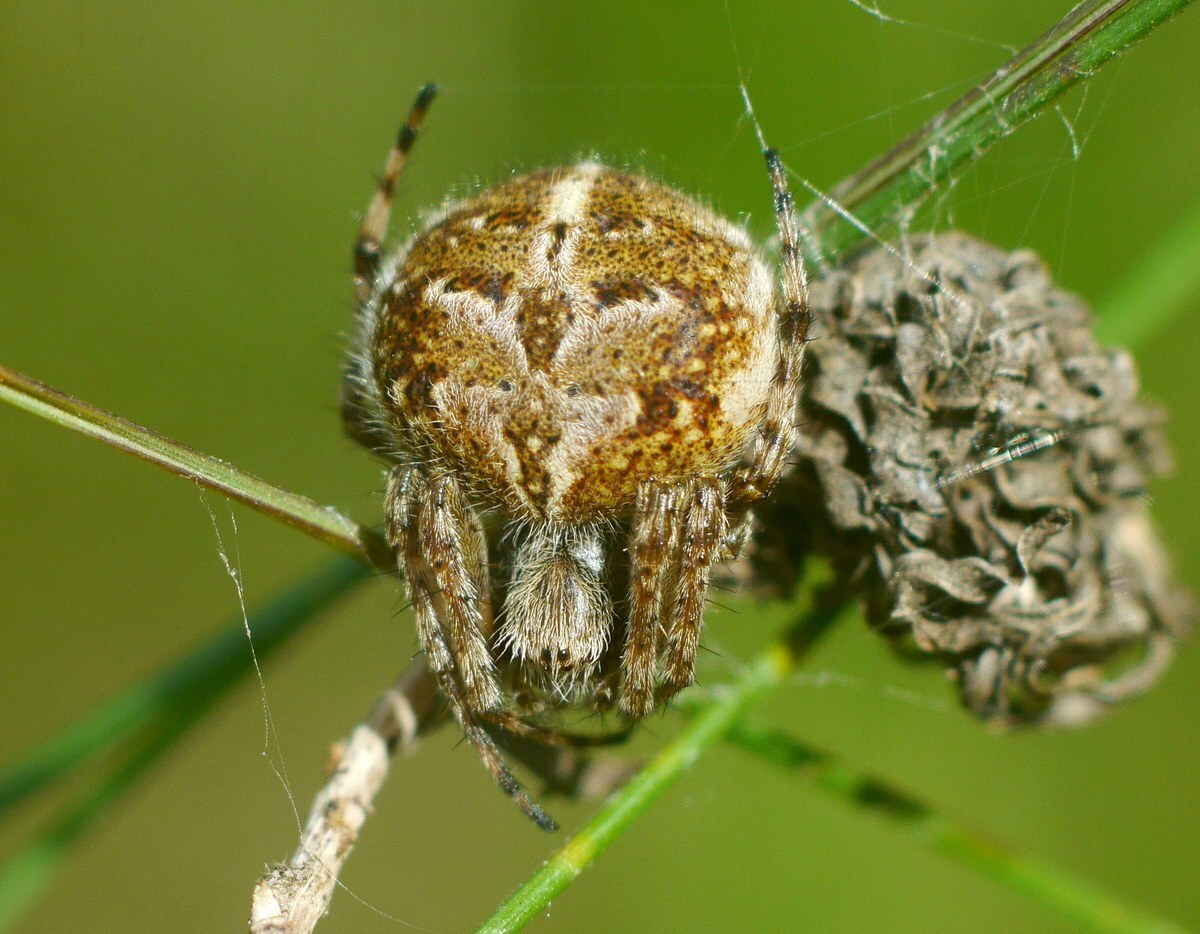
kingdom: Animalia
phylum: Arthropoda
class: Arachnida
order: Araneae
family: Araneidae
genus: Agalenatea
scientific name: Agalenatea redii
